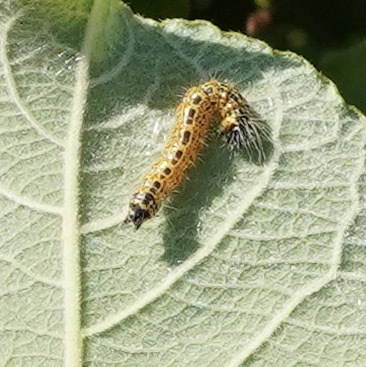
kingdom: Animalia
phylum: Arthropoda
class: Insecta
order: Lepidoptera
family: Notodontidae
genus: Phalera
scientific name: Phalera bucephala
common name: Buff-tip
